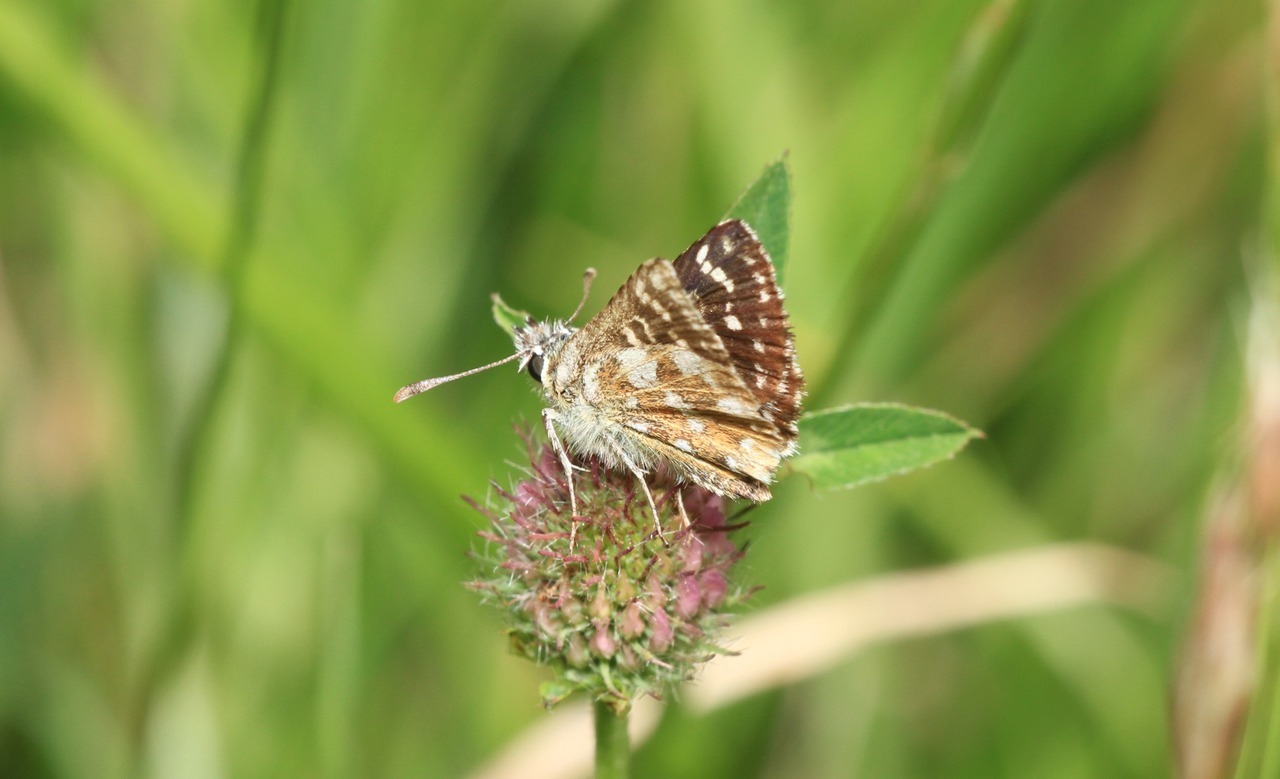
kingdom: Animalia
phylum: Arthropoda
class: Insecta
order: Lepidoptera
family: Hesperiidae
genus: Spialia
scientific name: Spialia sertorius
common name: Red underwing skipper
